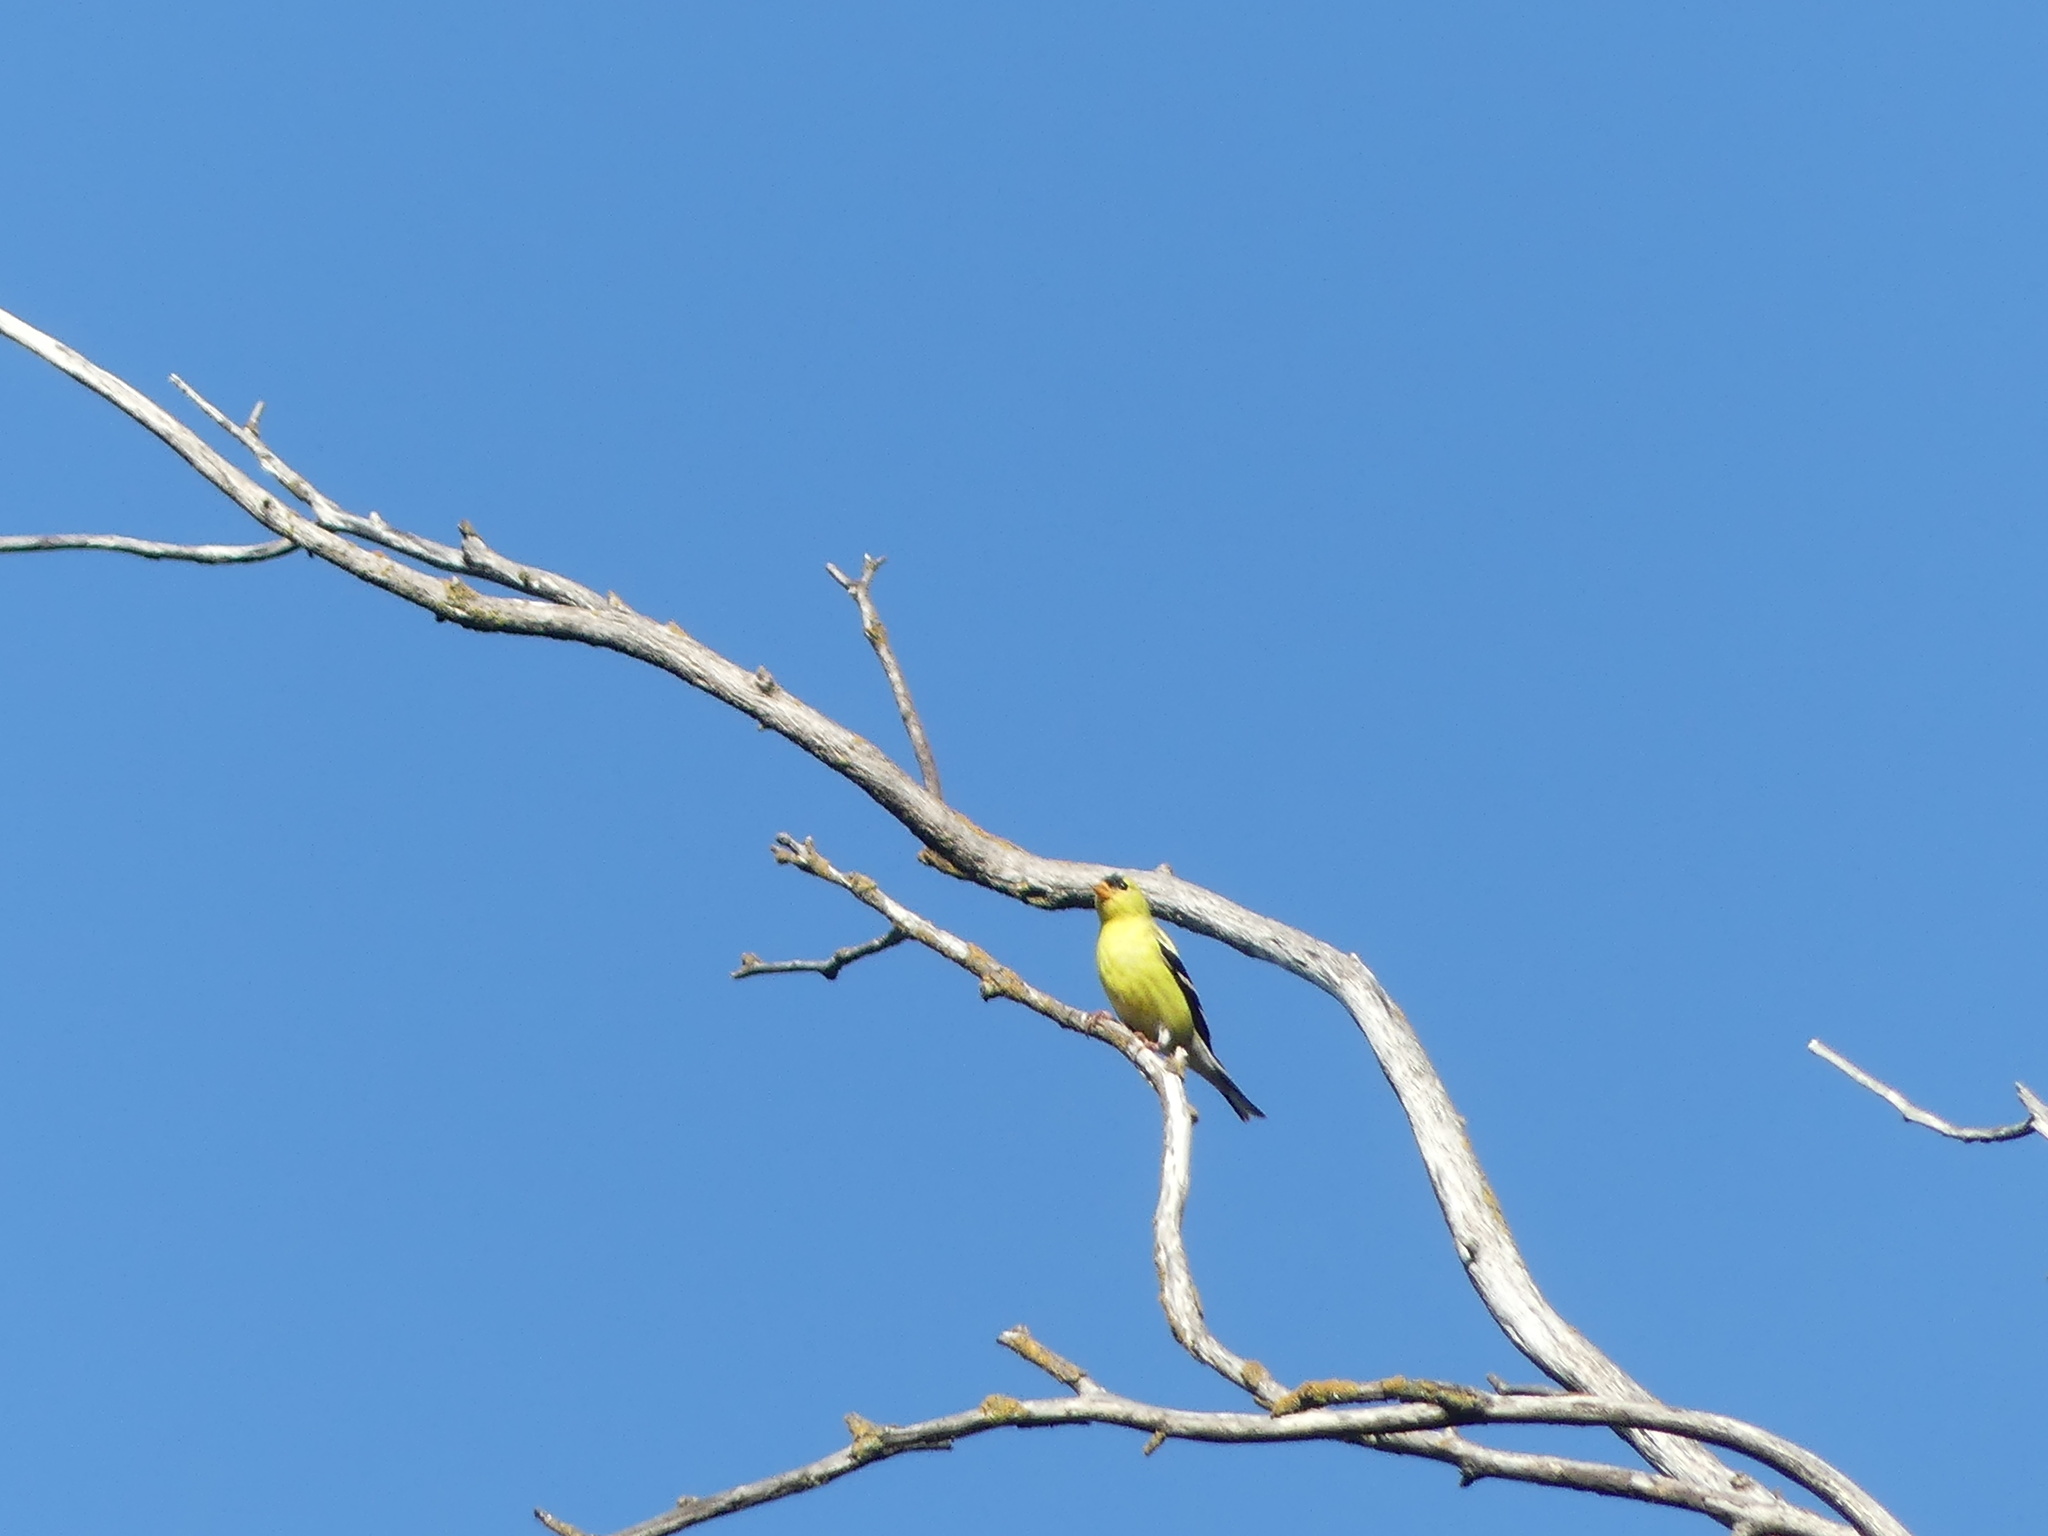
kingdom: Animalia
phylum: Chordata
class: Aves
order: Passeriformes
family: Fringillidae
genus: Spinus
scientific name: Spinus tristis
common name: American goldfinch
